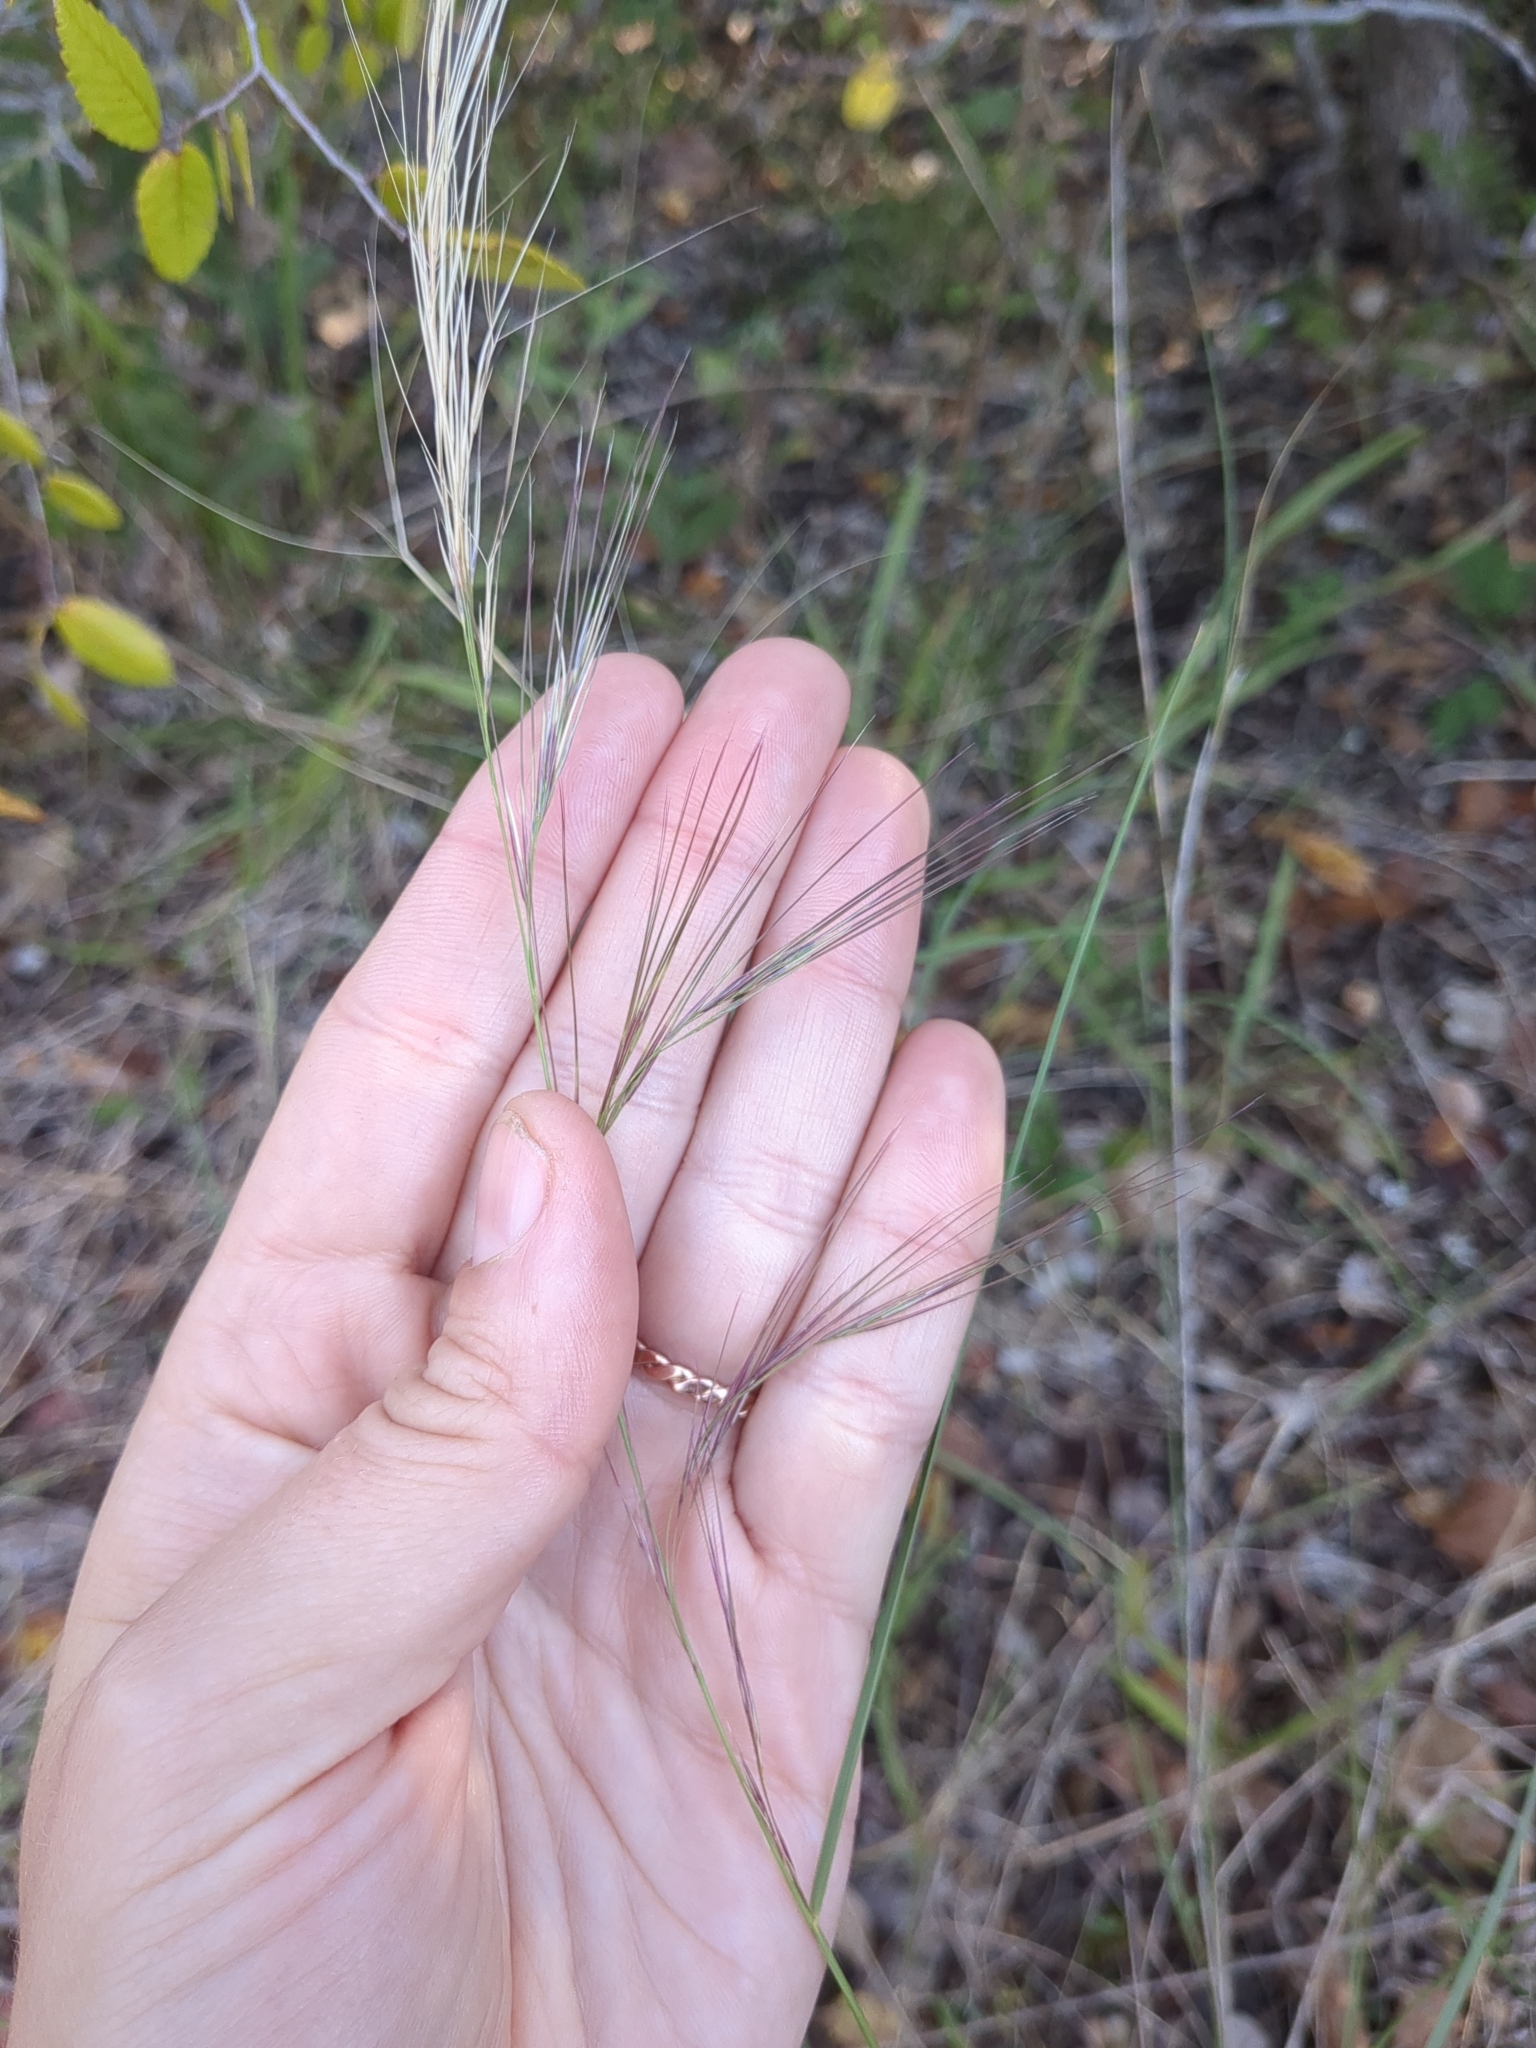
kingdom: Plantae
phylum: Tracheophyta
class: Liliopsida
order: Poales
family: Poaceae
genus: Aristida
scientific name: Aristida purpurea
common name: Purple threeawn
